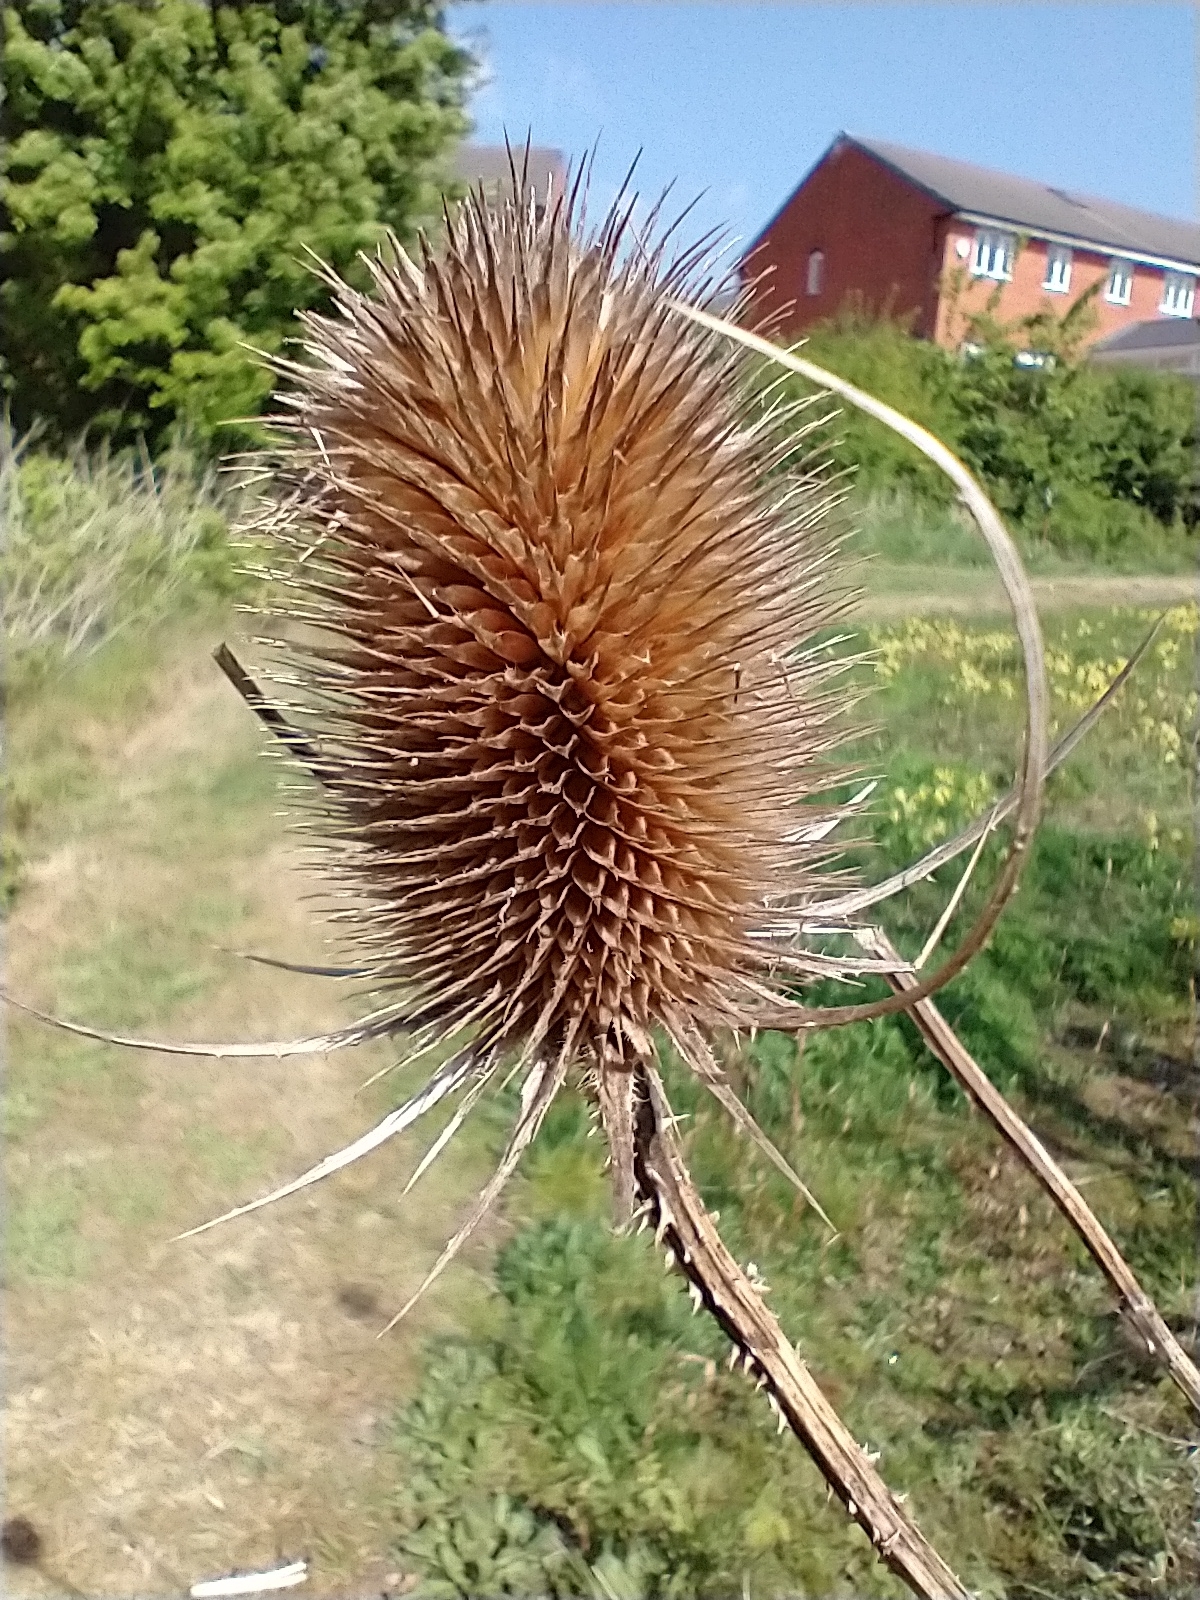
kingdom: Plantae
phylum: Tracheophyta
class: Magnoliopsida
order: Dipsacales
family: Caprifoliaceae
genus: Dipsacus
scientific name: Dipsacus fullonum
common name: Teasel
